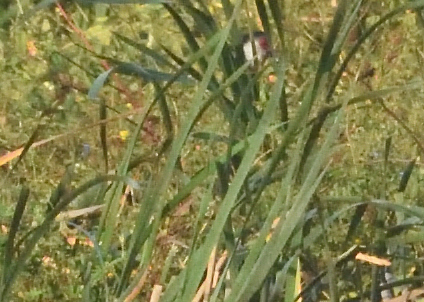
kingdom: Animalia
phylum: Chordata
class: Aves
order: Anseriformes
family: Anhimidae
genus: Chauna
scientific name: Chauna chavaria
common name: Northern screamer
